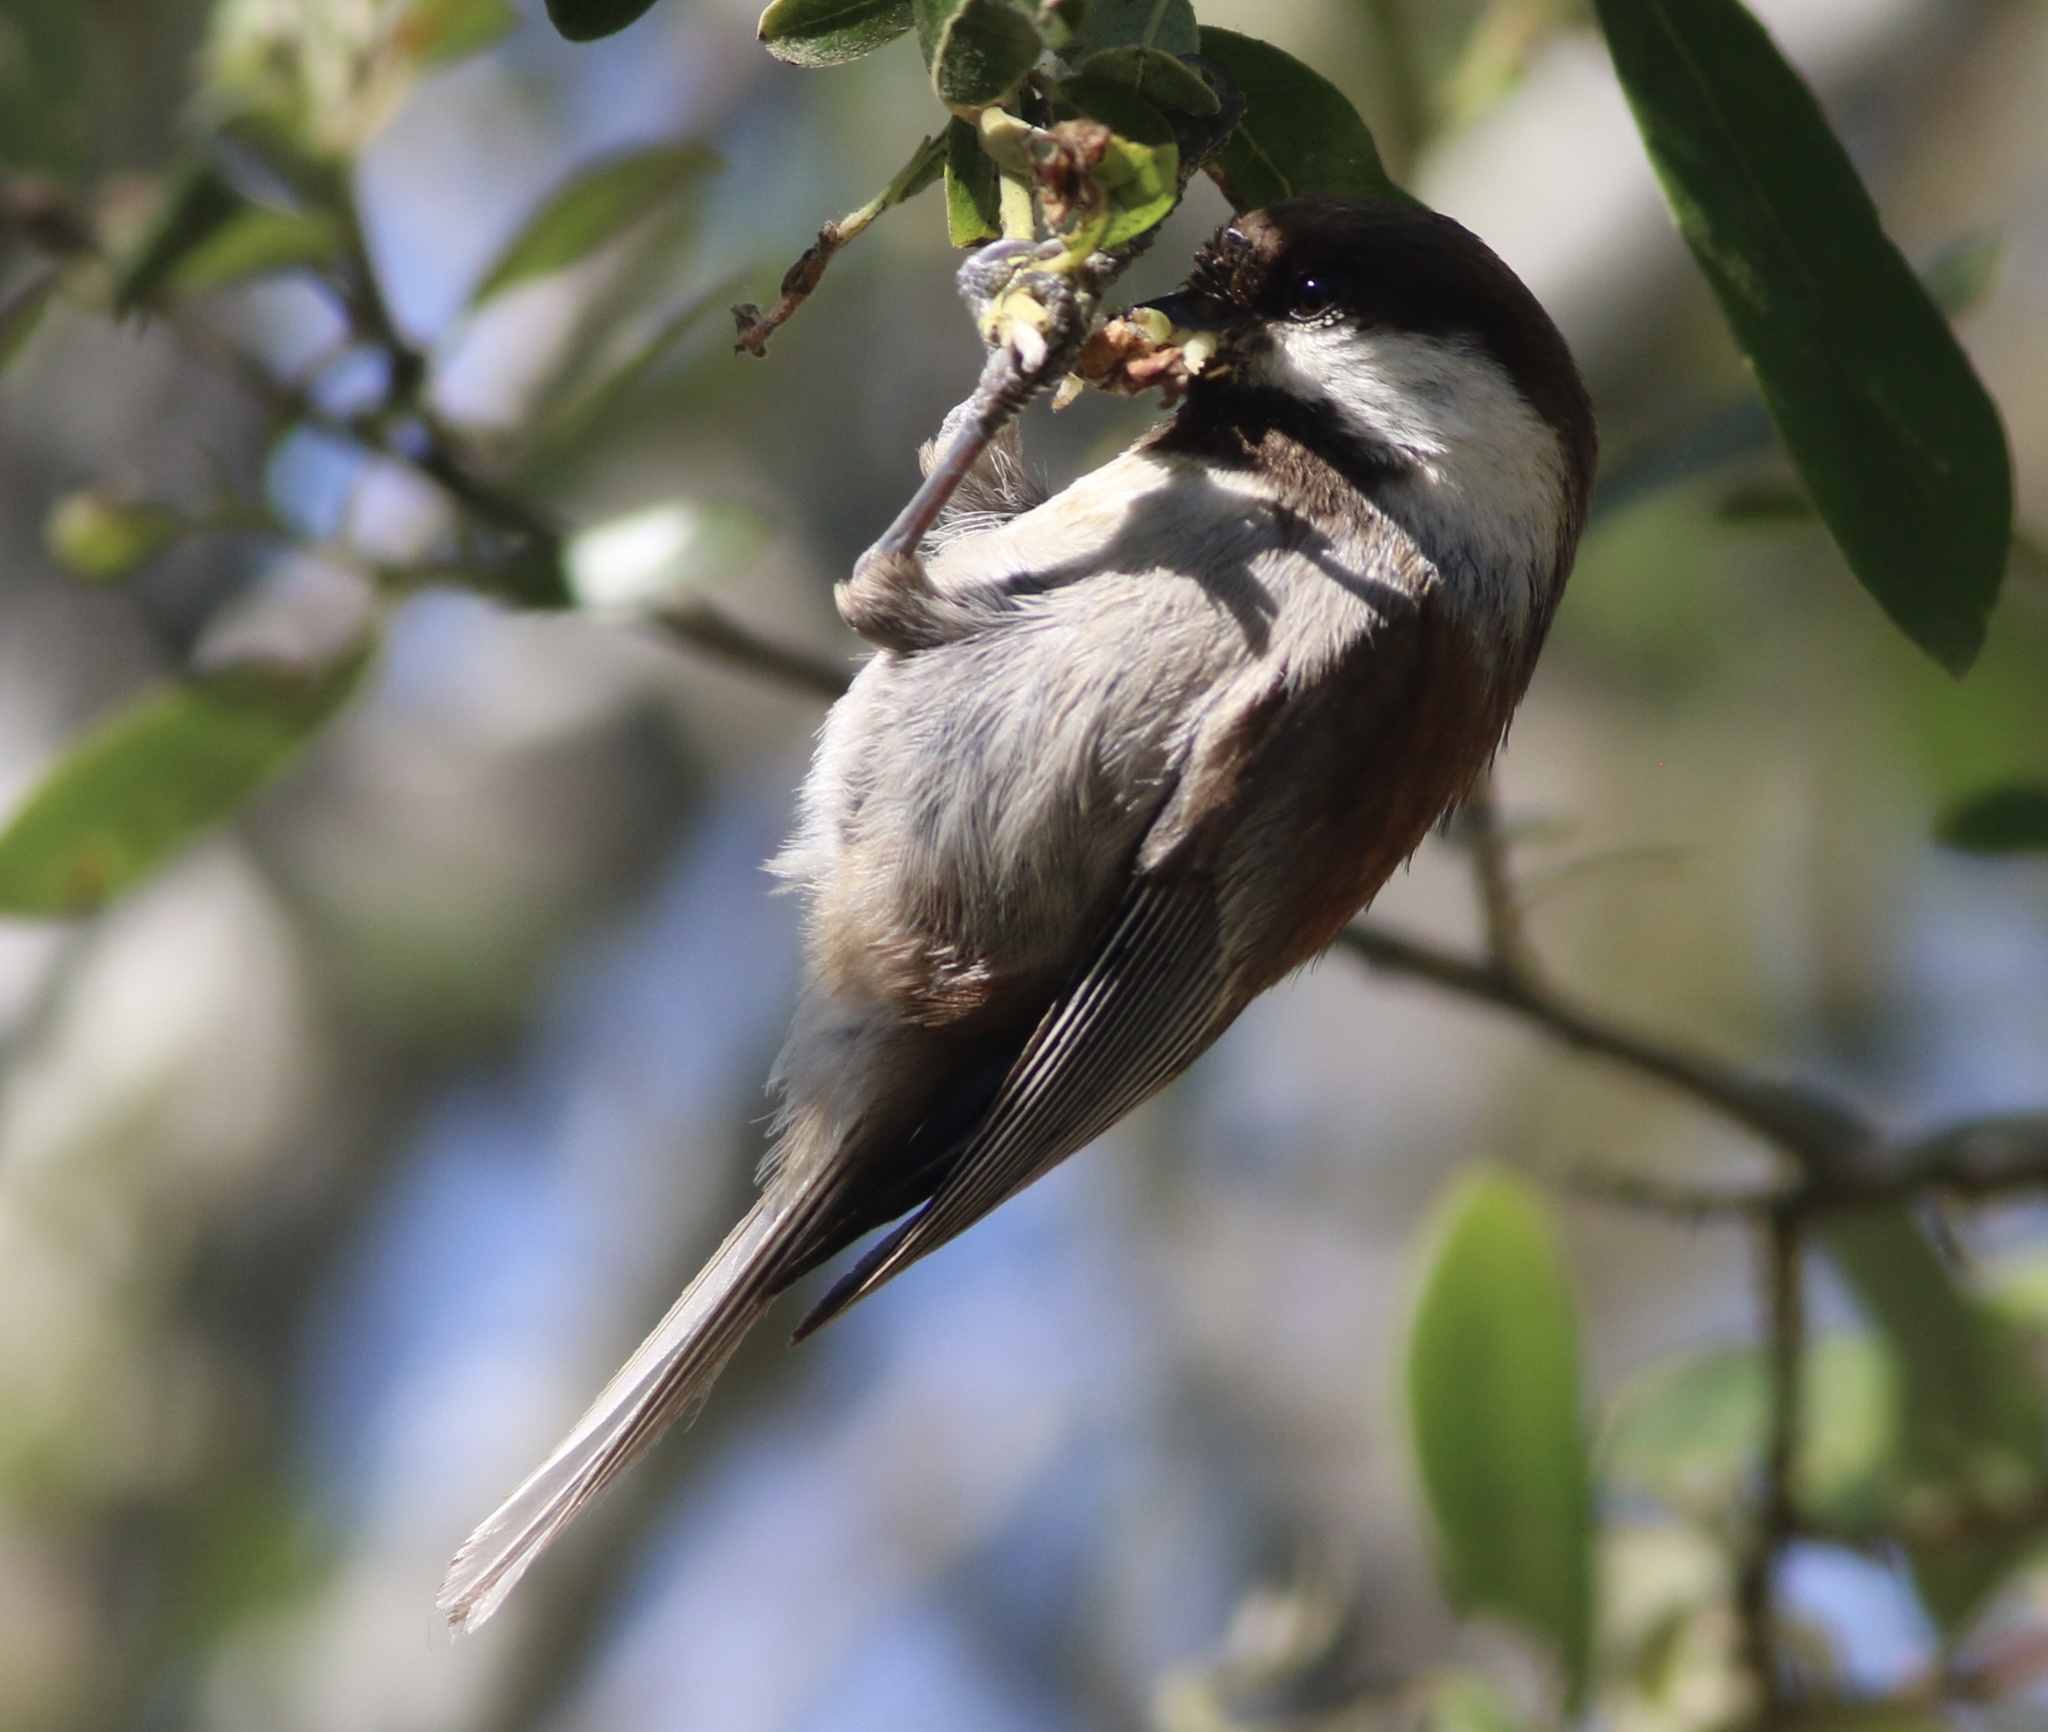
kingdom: Animalia
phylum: Chordata
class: Aves
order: Passeriformes
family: Paridae
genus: Poecile
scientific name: Poecile rufescens
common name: Chestnut-backed chickadee
